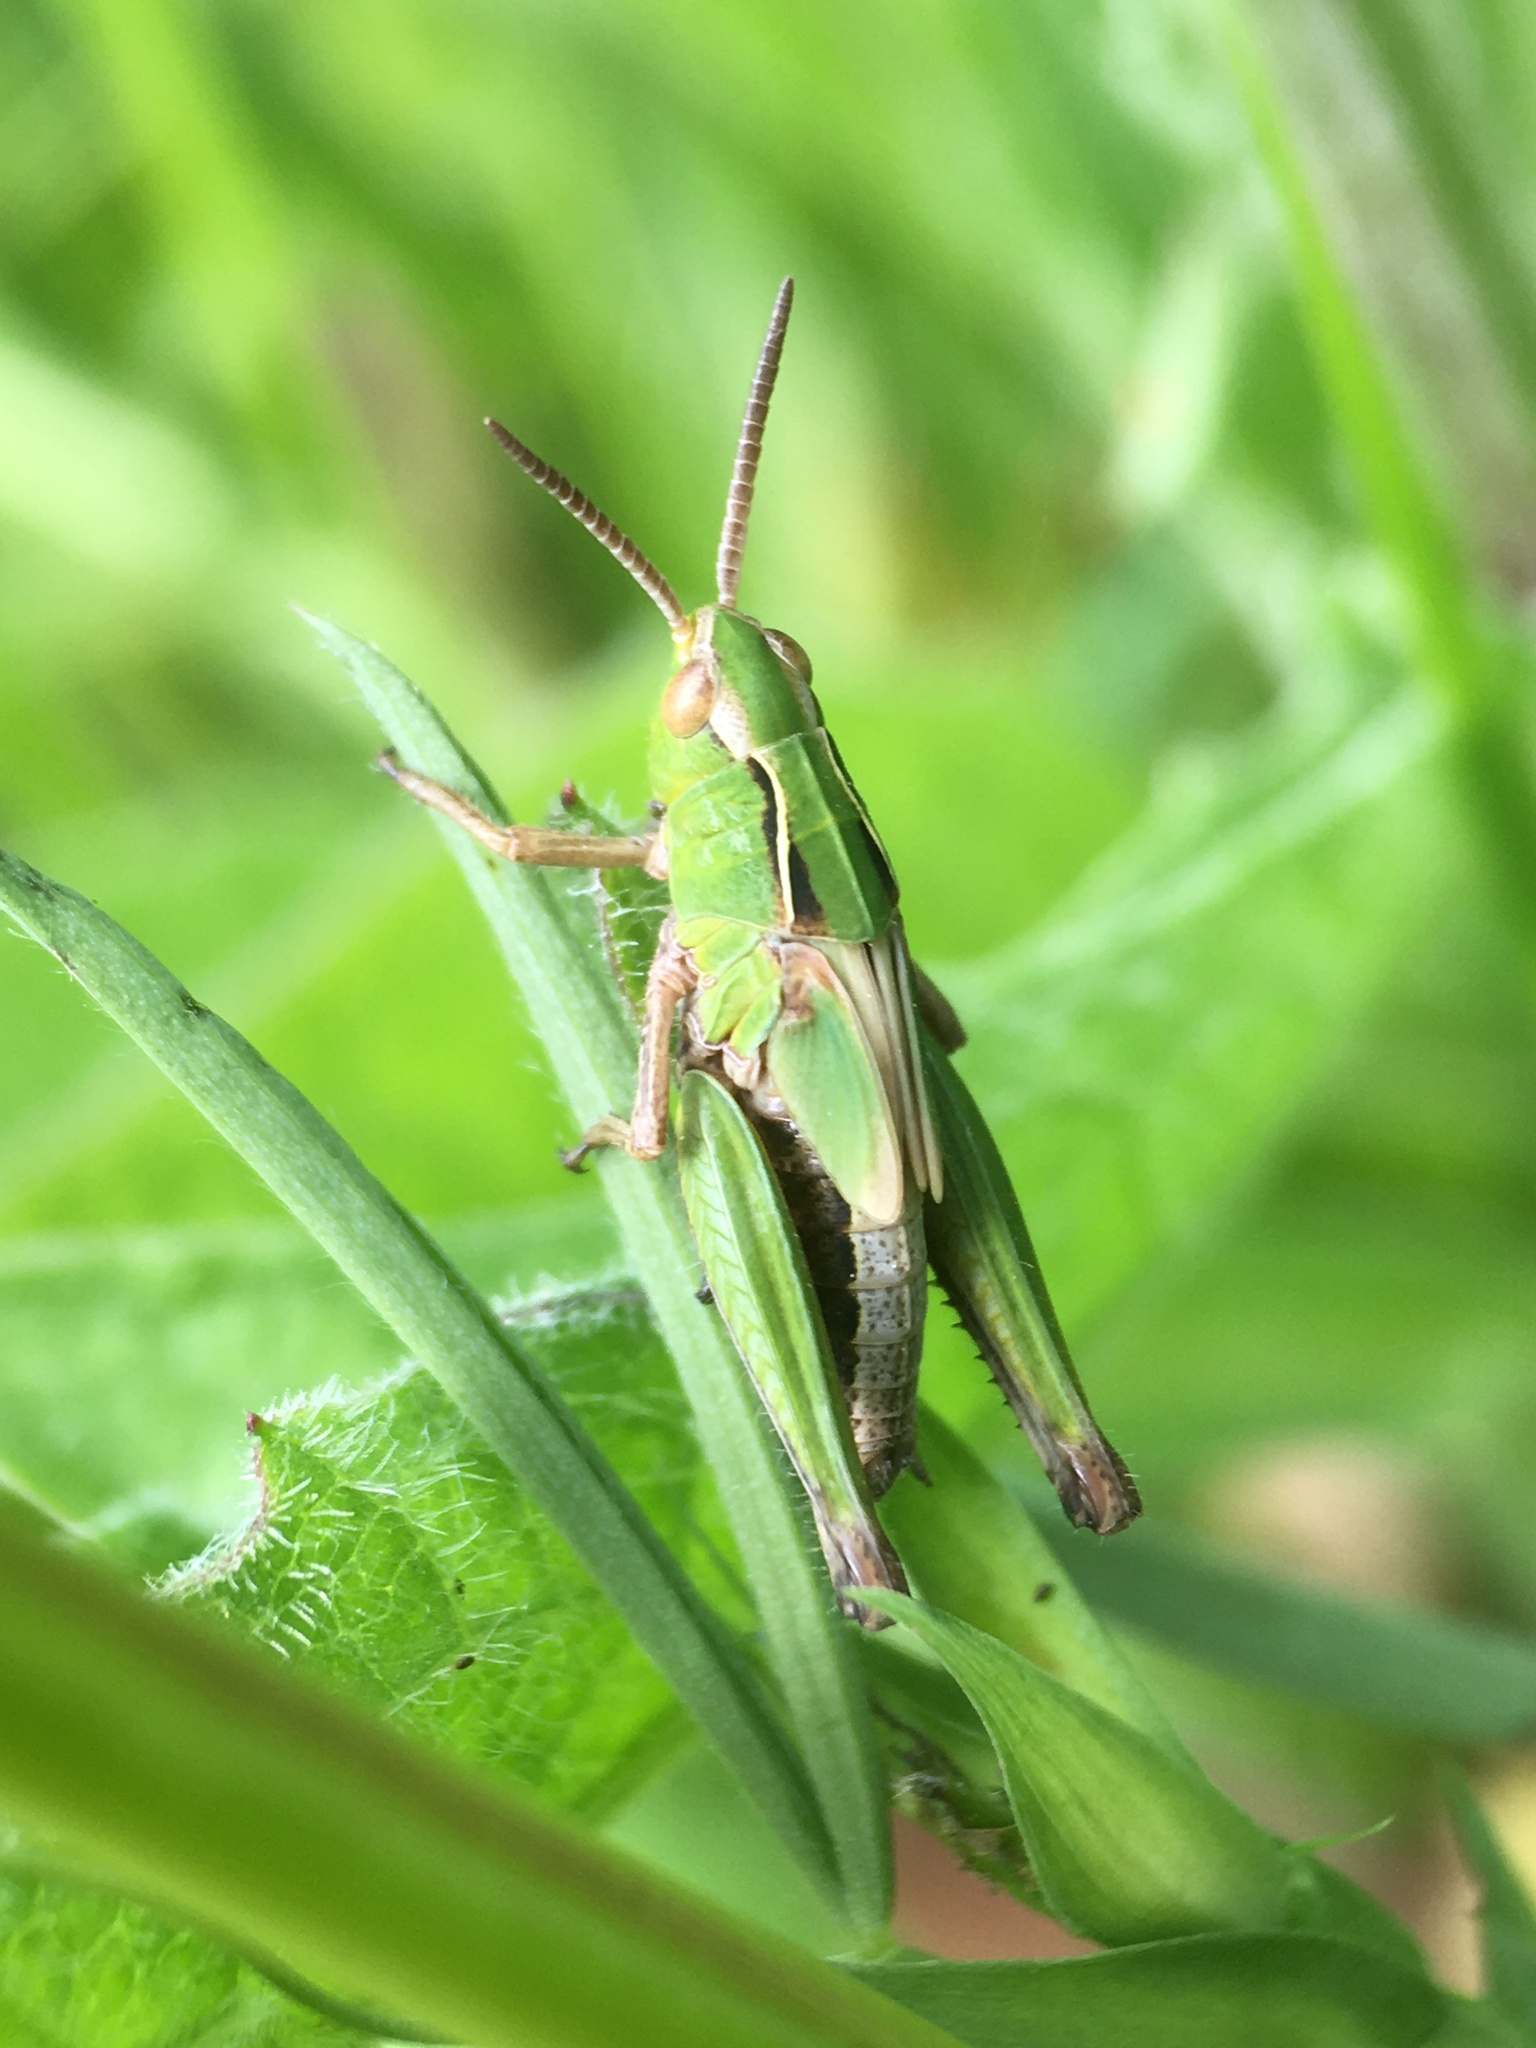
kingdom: Animalia
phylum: Arthropoda
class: Insecta
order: Orthoptera
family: Acrididae
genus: Omocestus
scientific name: Omocestus viridulus
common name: Common green grasshopper
